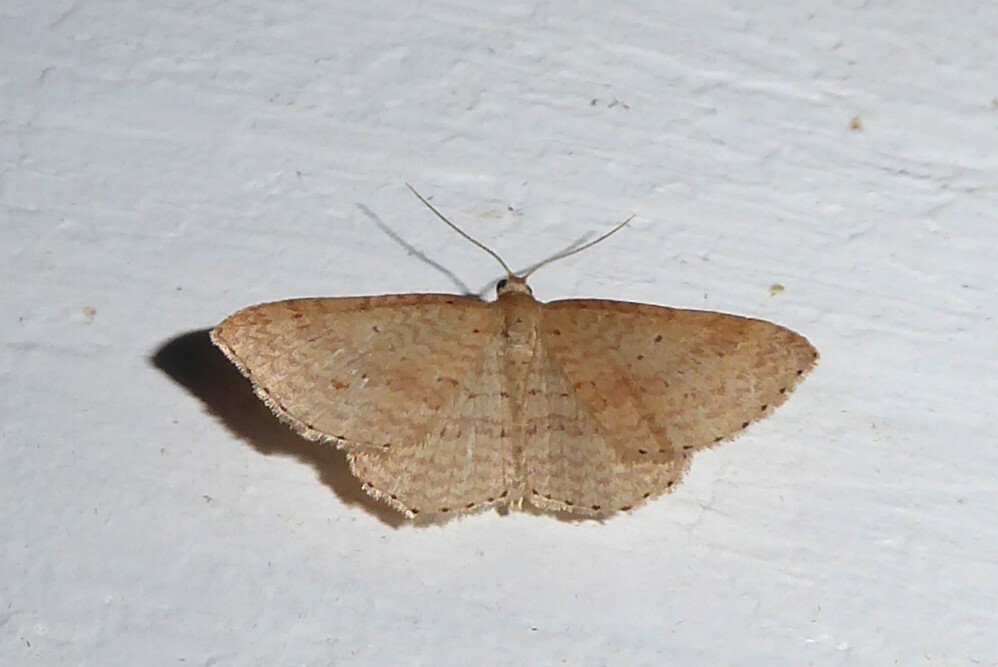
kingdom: Animalia
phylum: Arthropoda
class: Insecta
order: Lepidoptera
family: Geometridae
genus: Epicyme
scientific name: Epicyme rubropunctaria
